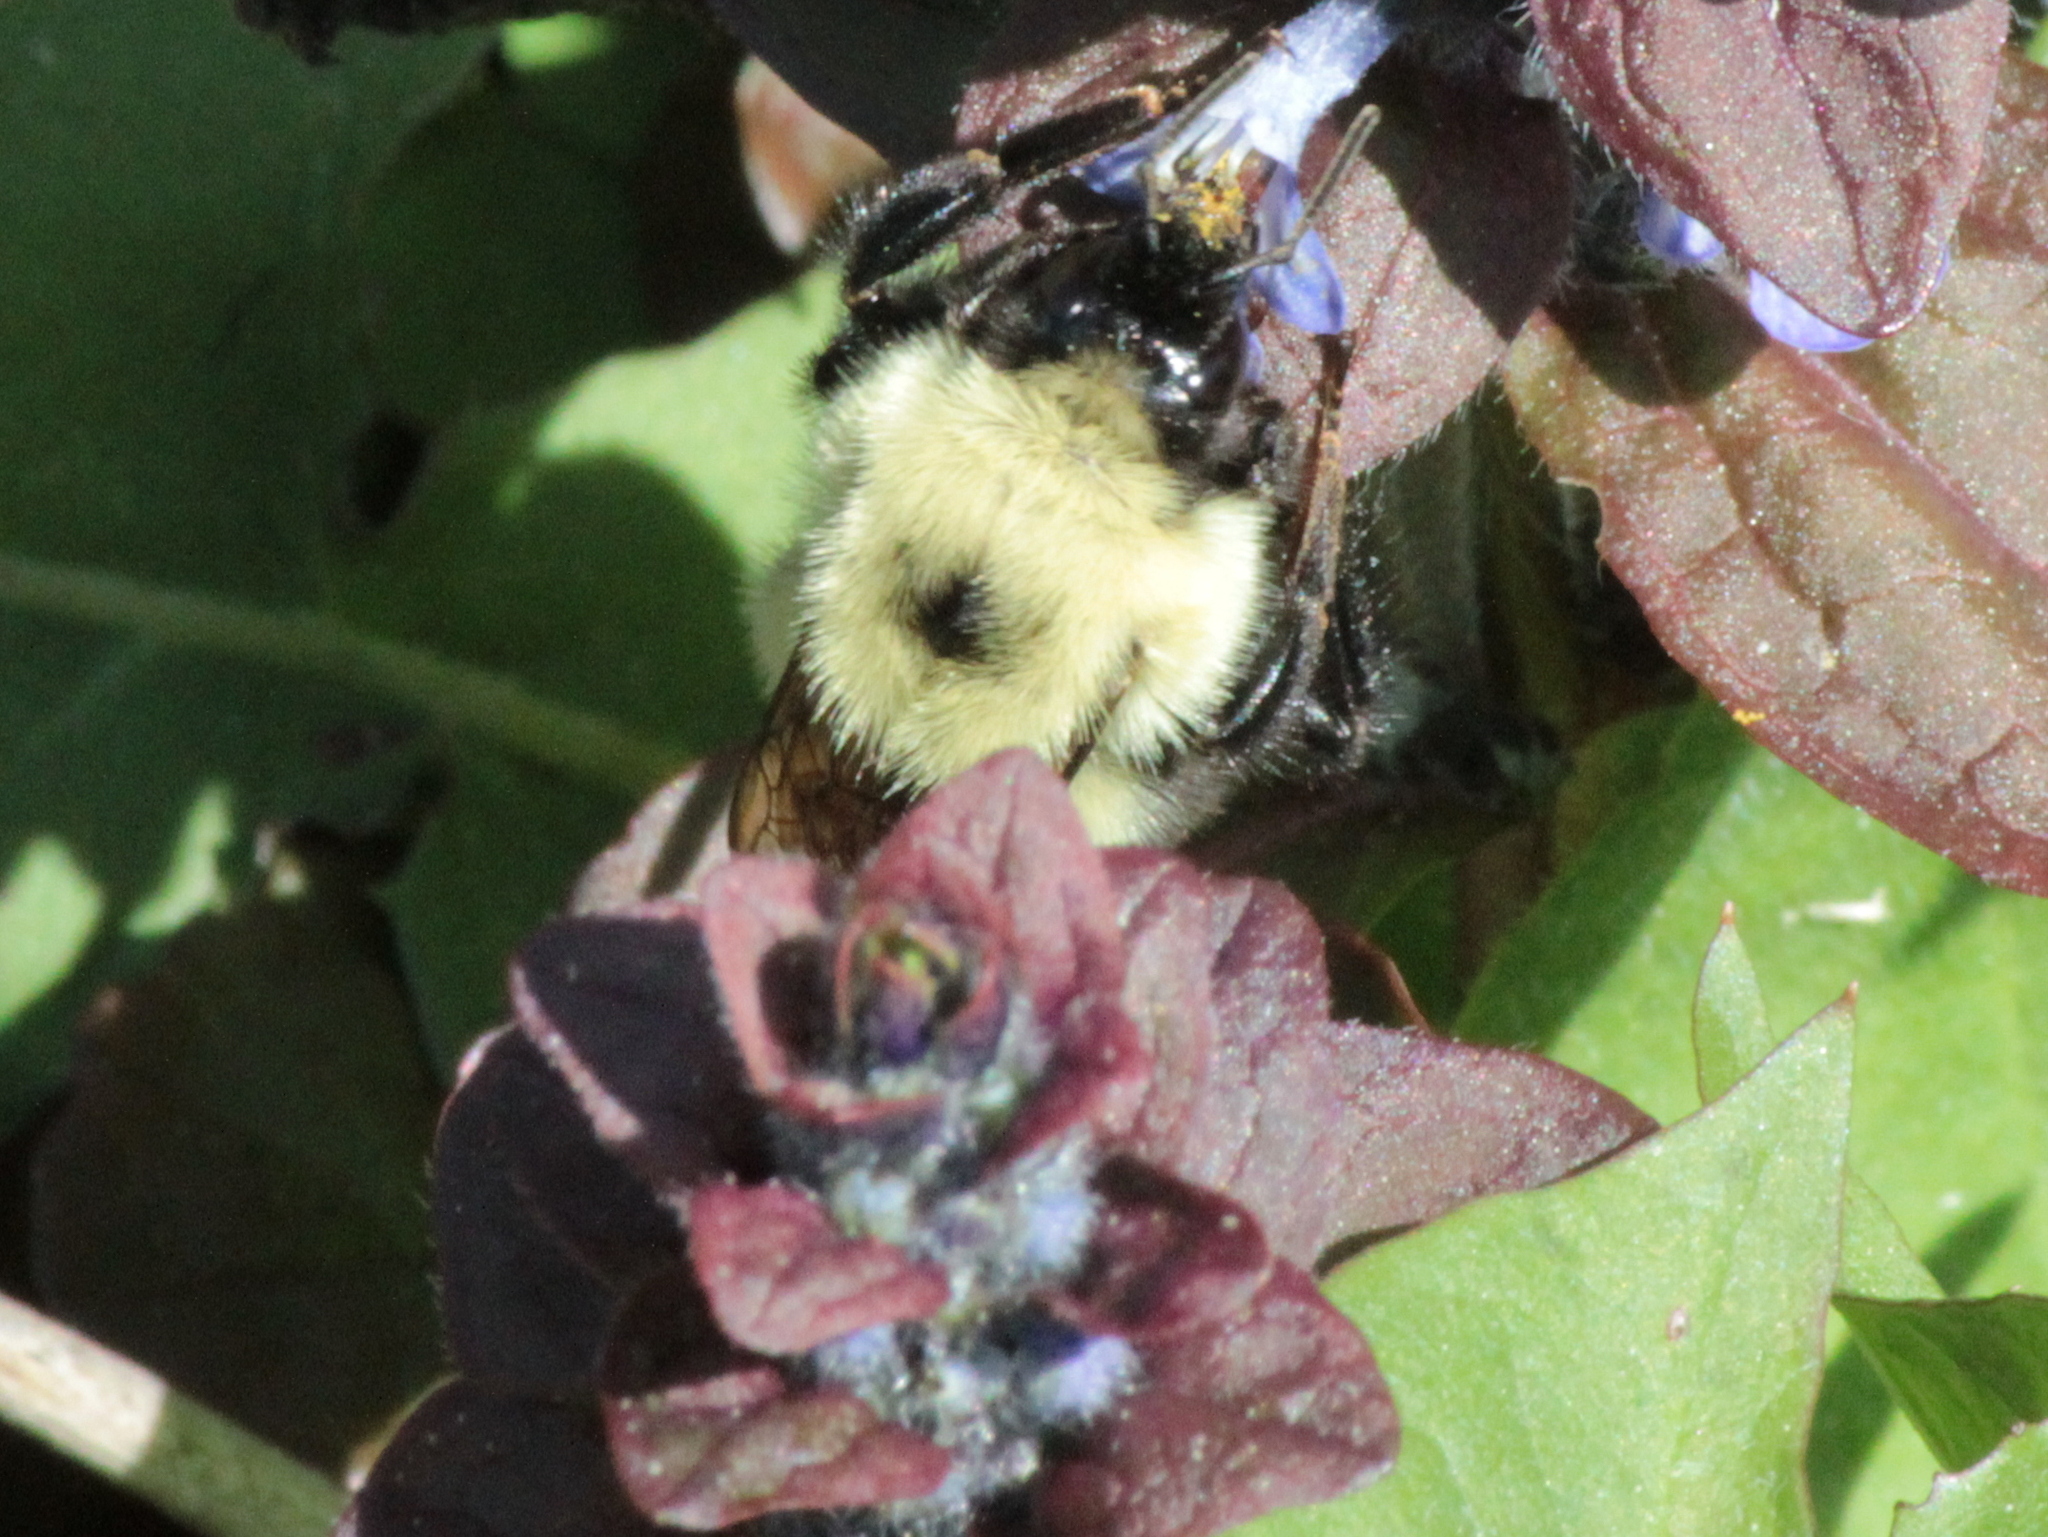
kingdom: Animalia
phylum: Arthropoda
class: Insecta
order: Hymenoptera
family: Apidae
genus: Bombus
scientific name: Bombus bimaculatus
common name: Two-spotted bumble bee
